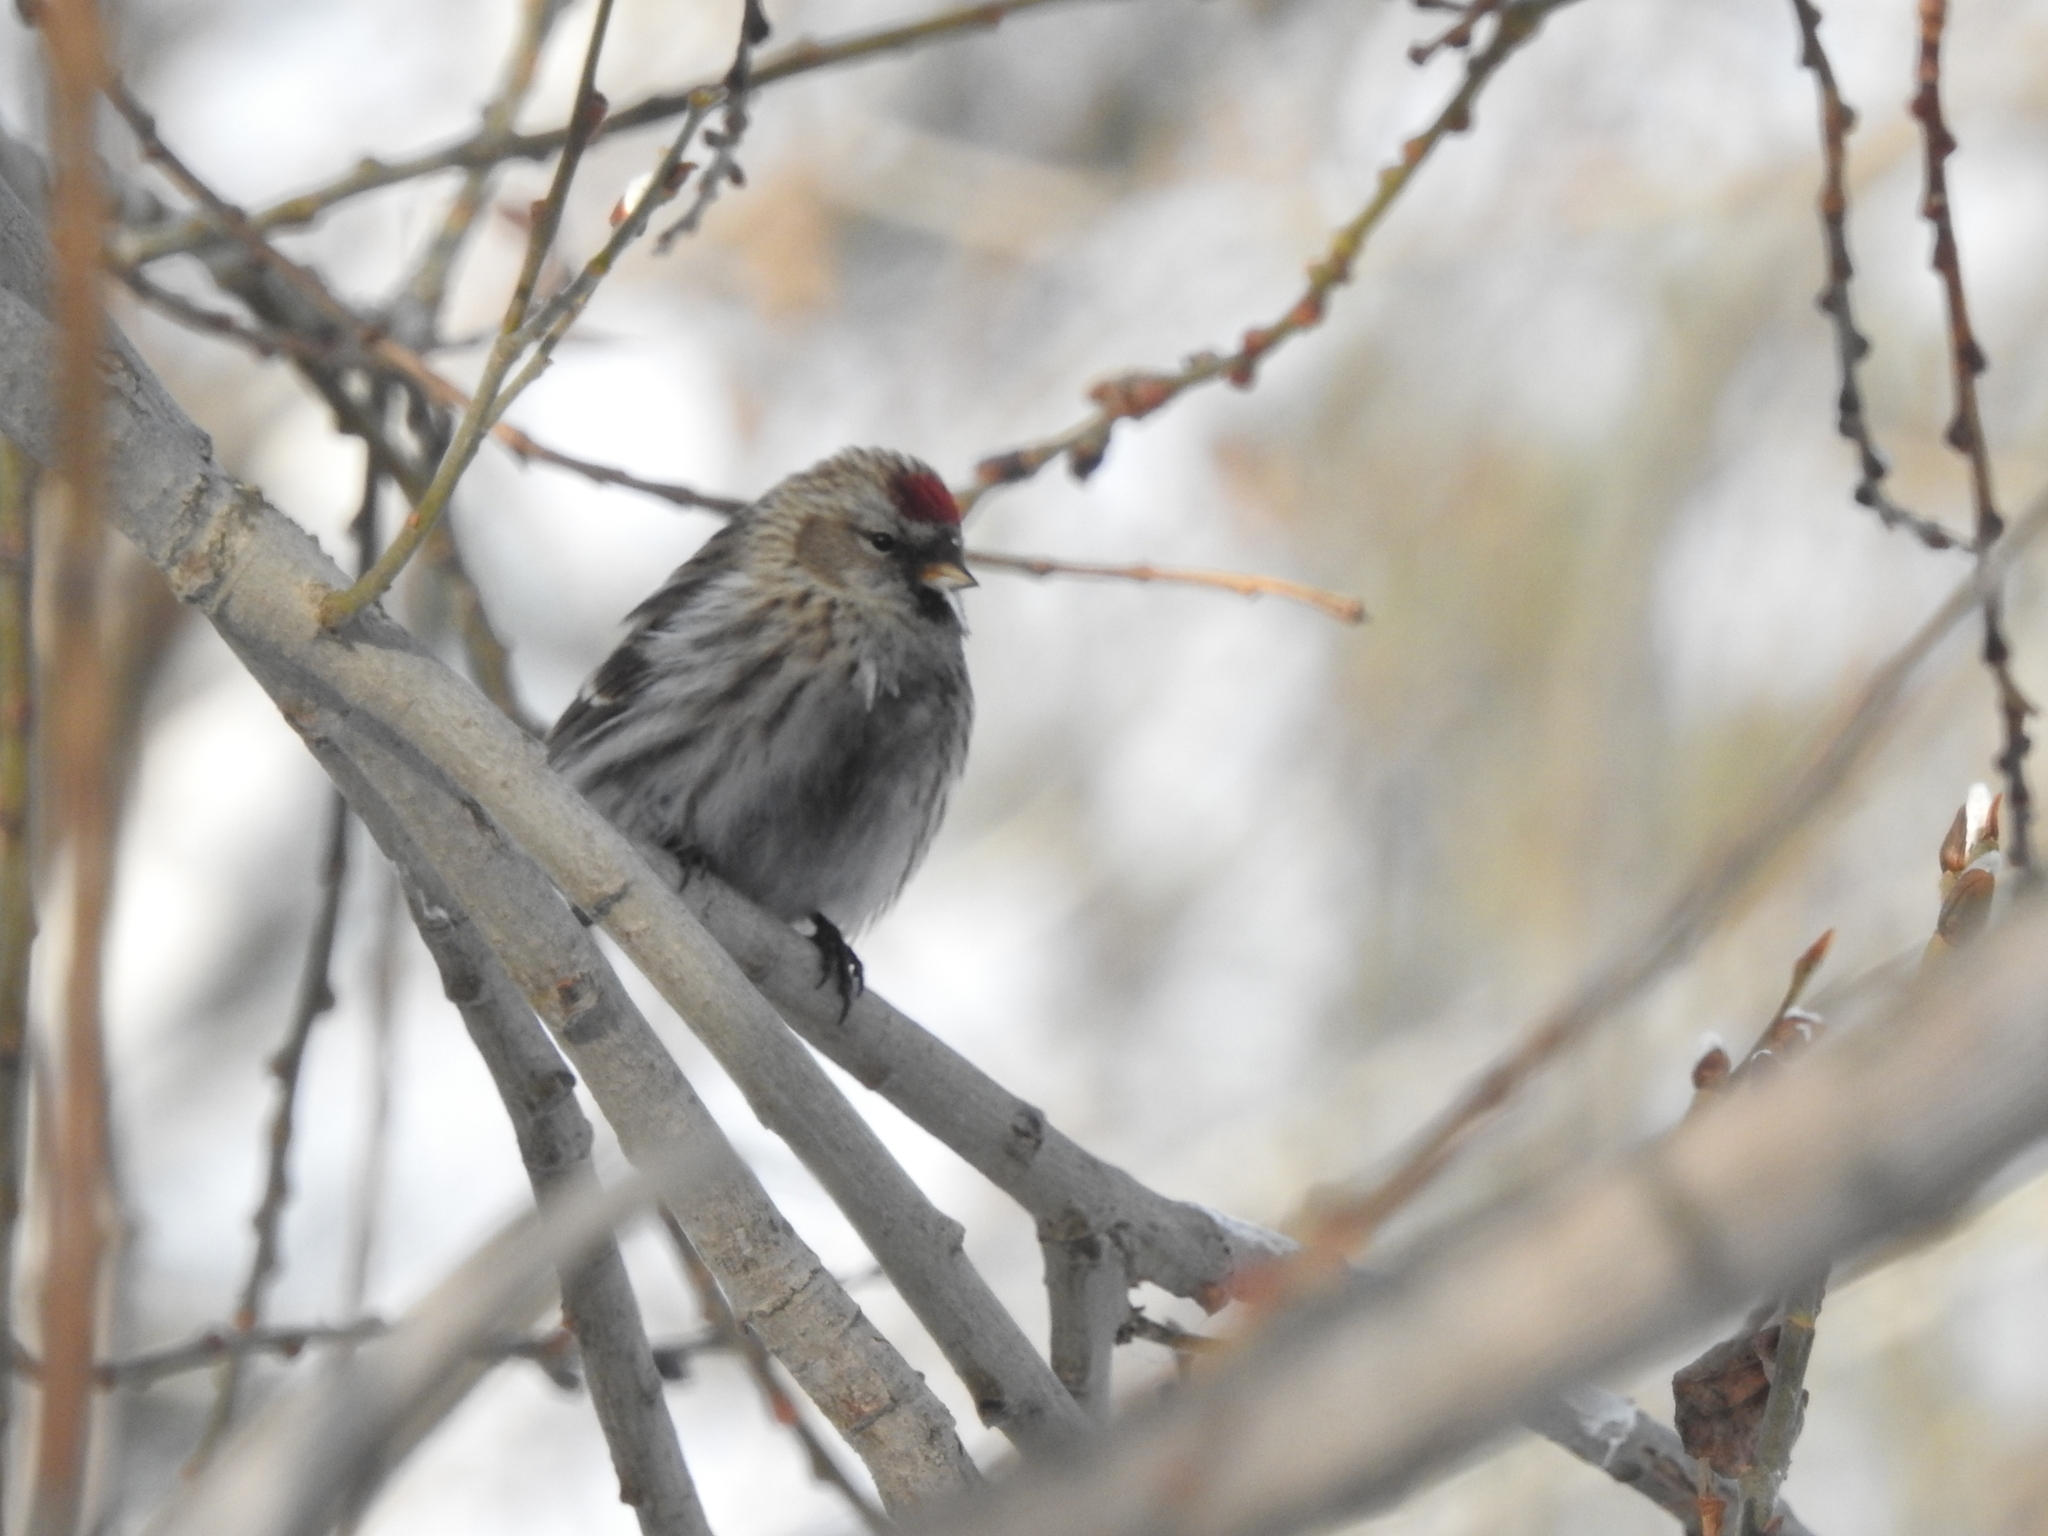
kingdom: Animalia
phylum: Chordata
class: Aves
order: Passeriformes
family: Fringillidae
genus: Acanthis
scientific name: Acanthis flammea
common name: Common redpoll
